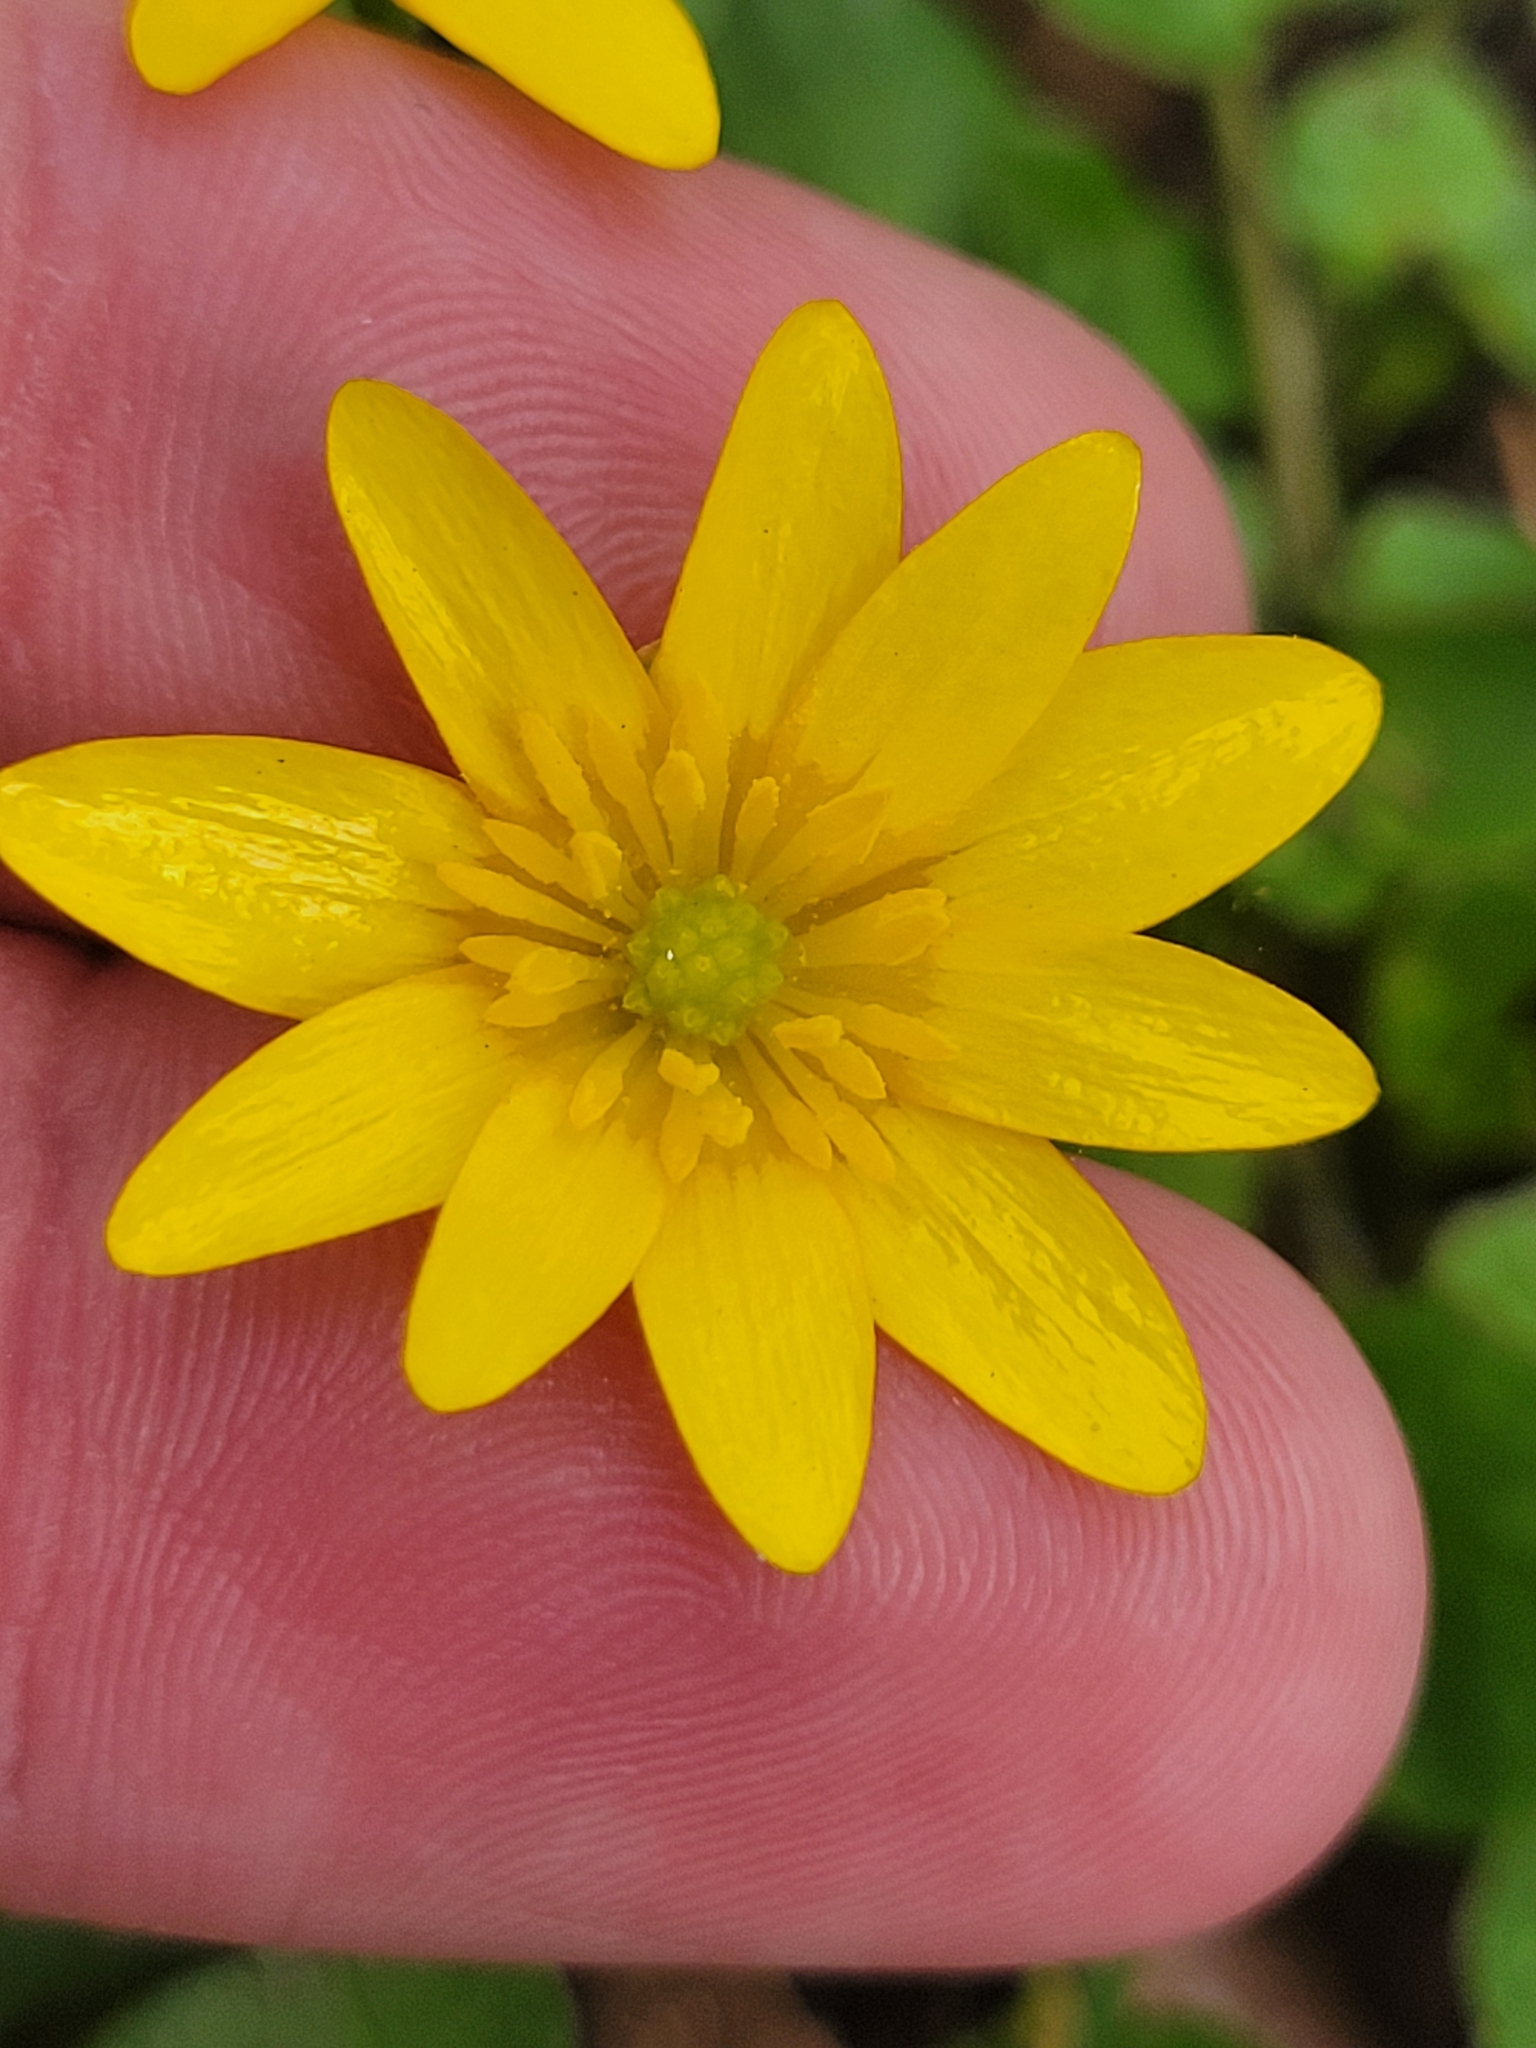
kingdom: Plantae
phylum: Tracheophyta
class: Magnoliopsida
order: Ranunculales
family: Ranunculaceae
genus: Ficaria
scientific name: Ficaria verna
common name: Lesser celandine
